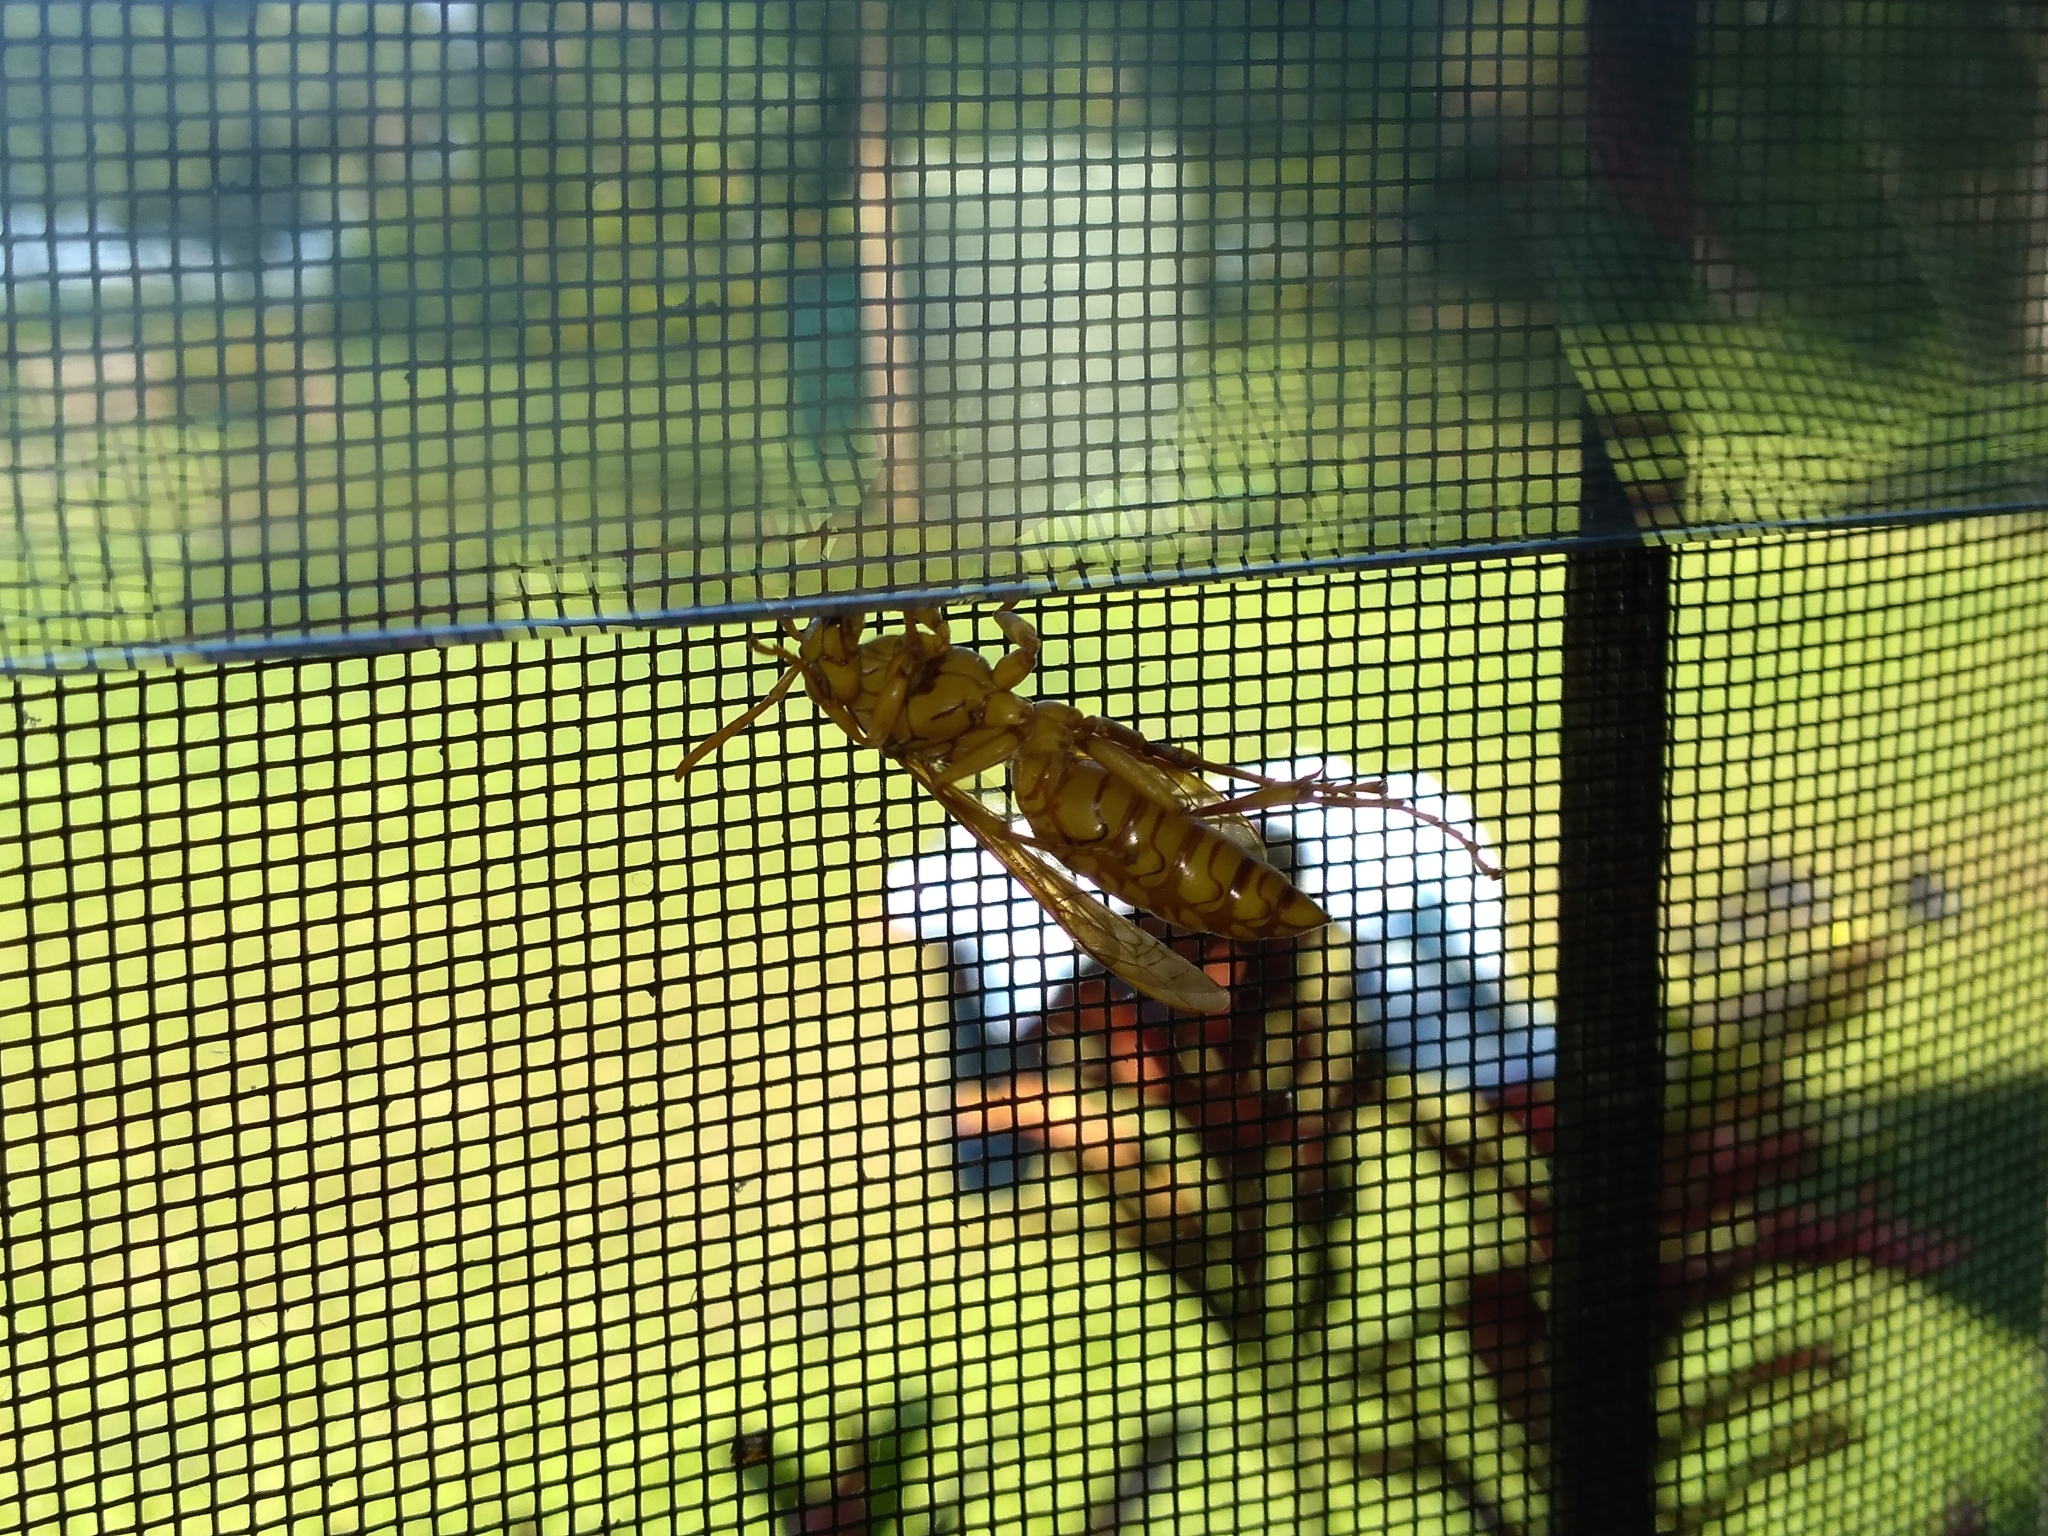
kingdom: Animalia
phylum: Arthropoda
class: Insecta
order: Hymenoptera
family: Eumenidae
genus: Polistes
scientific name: Polistes olivaceus
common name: Paper wasp
